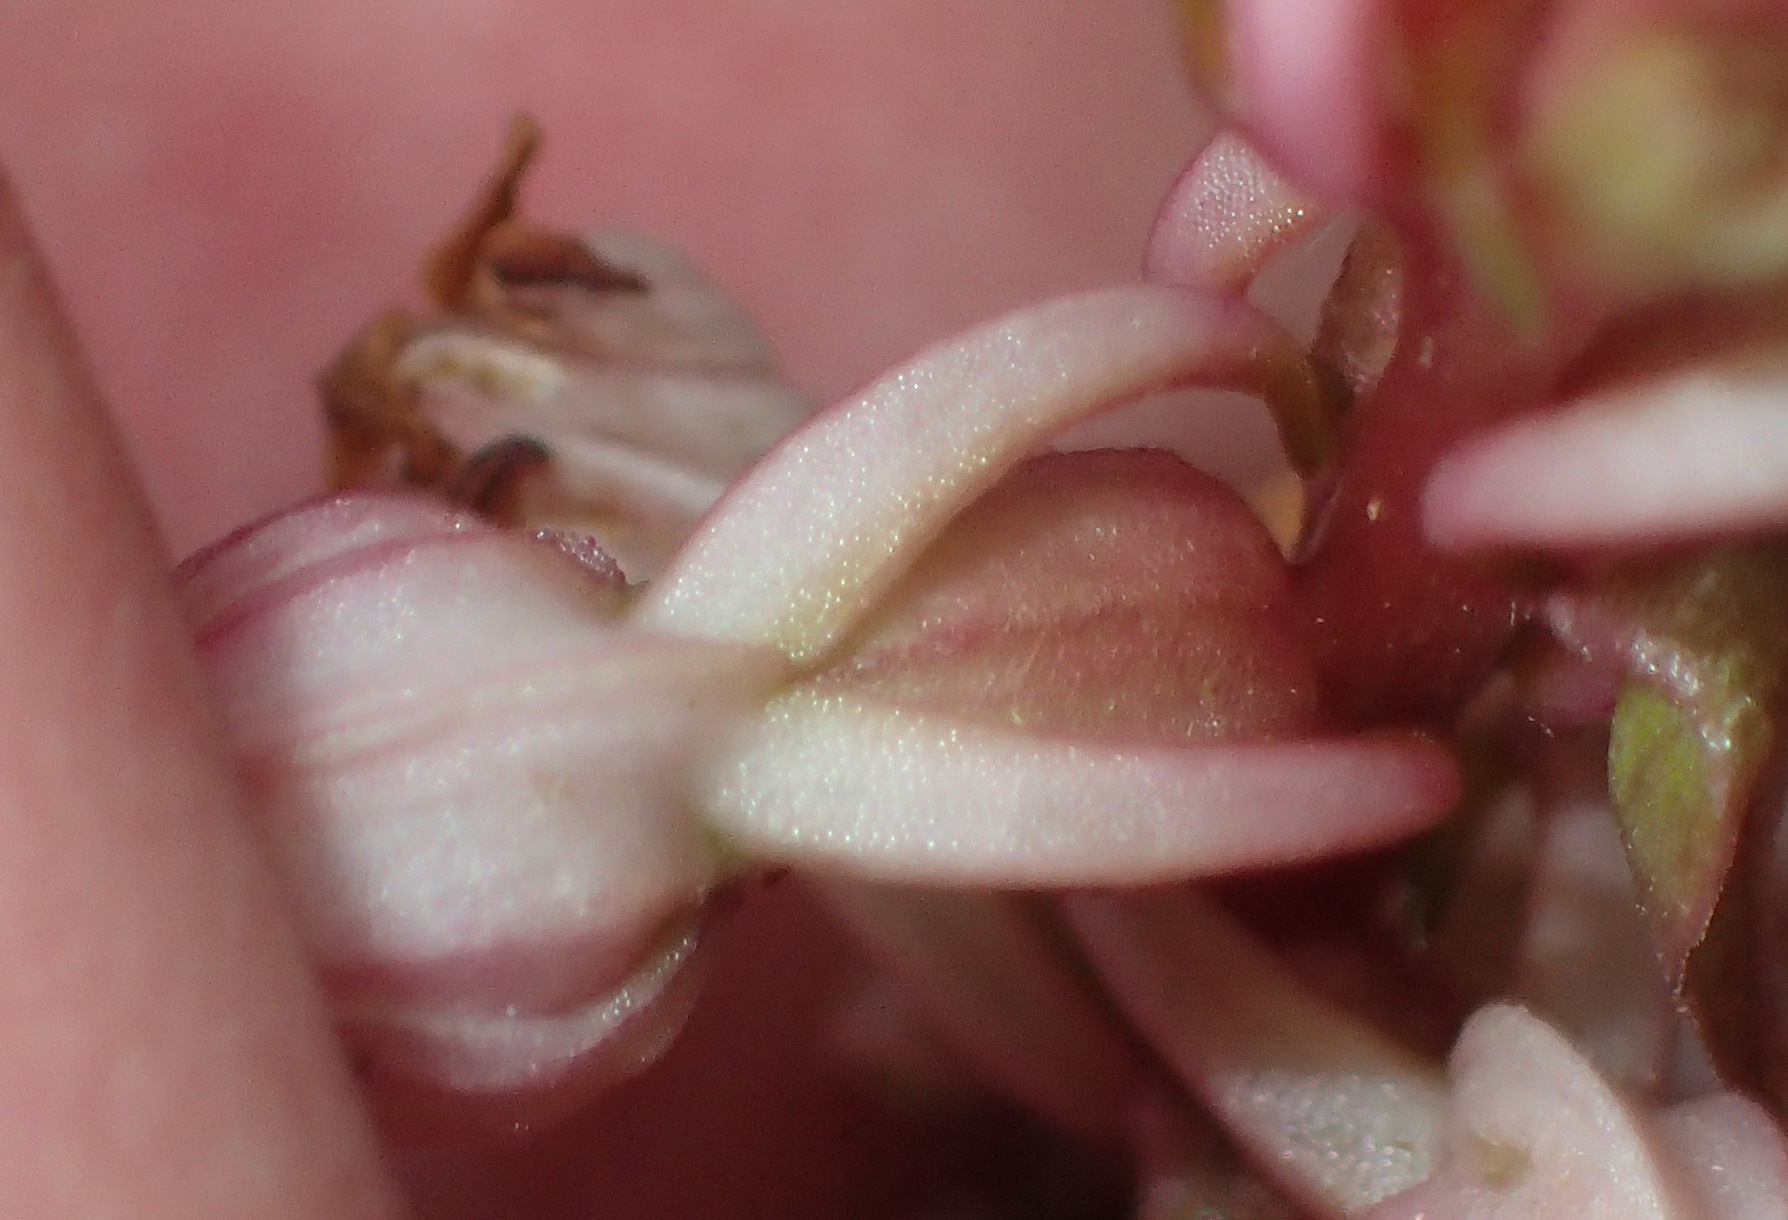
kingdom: Plantae
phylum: Tracheophyta
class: Liliopsida
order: Asparagales
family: Orchidaceae
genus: Satyrium
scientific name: Satyrium ligulatum
